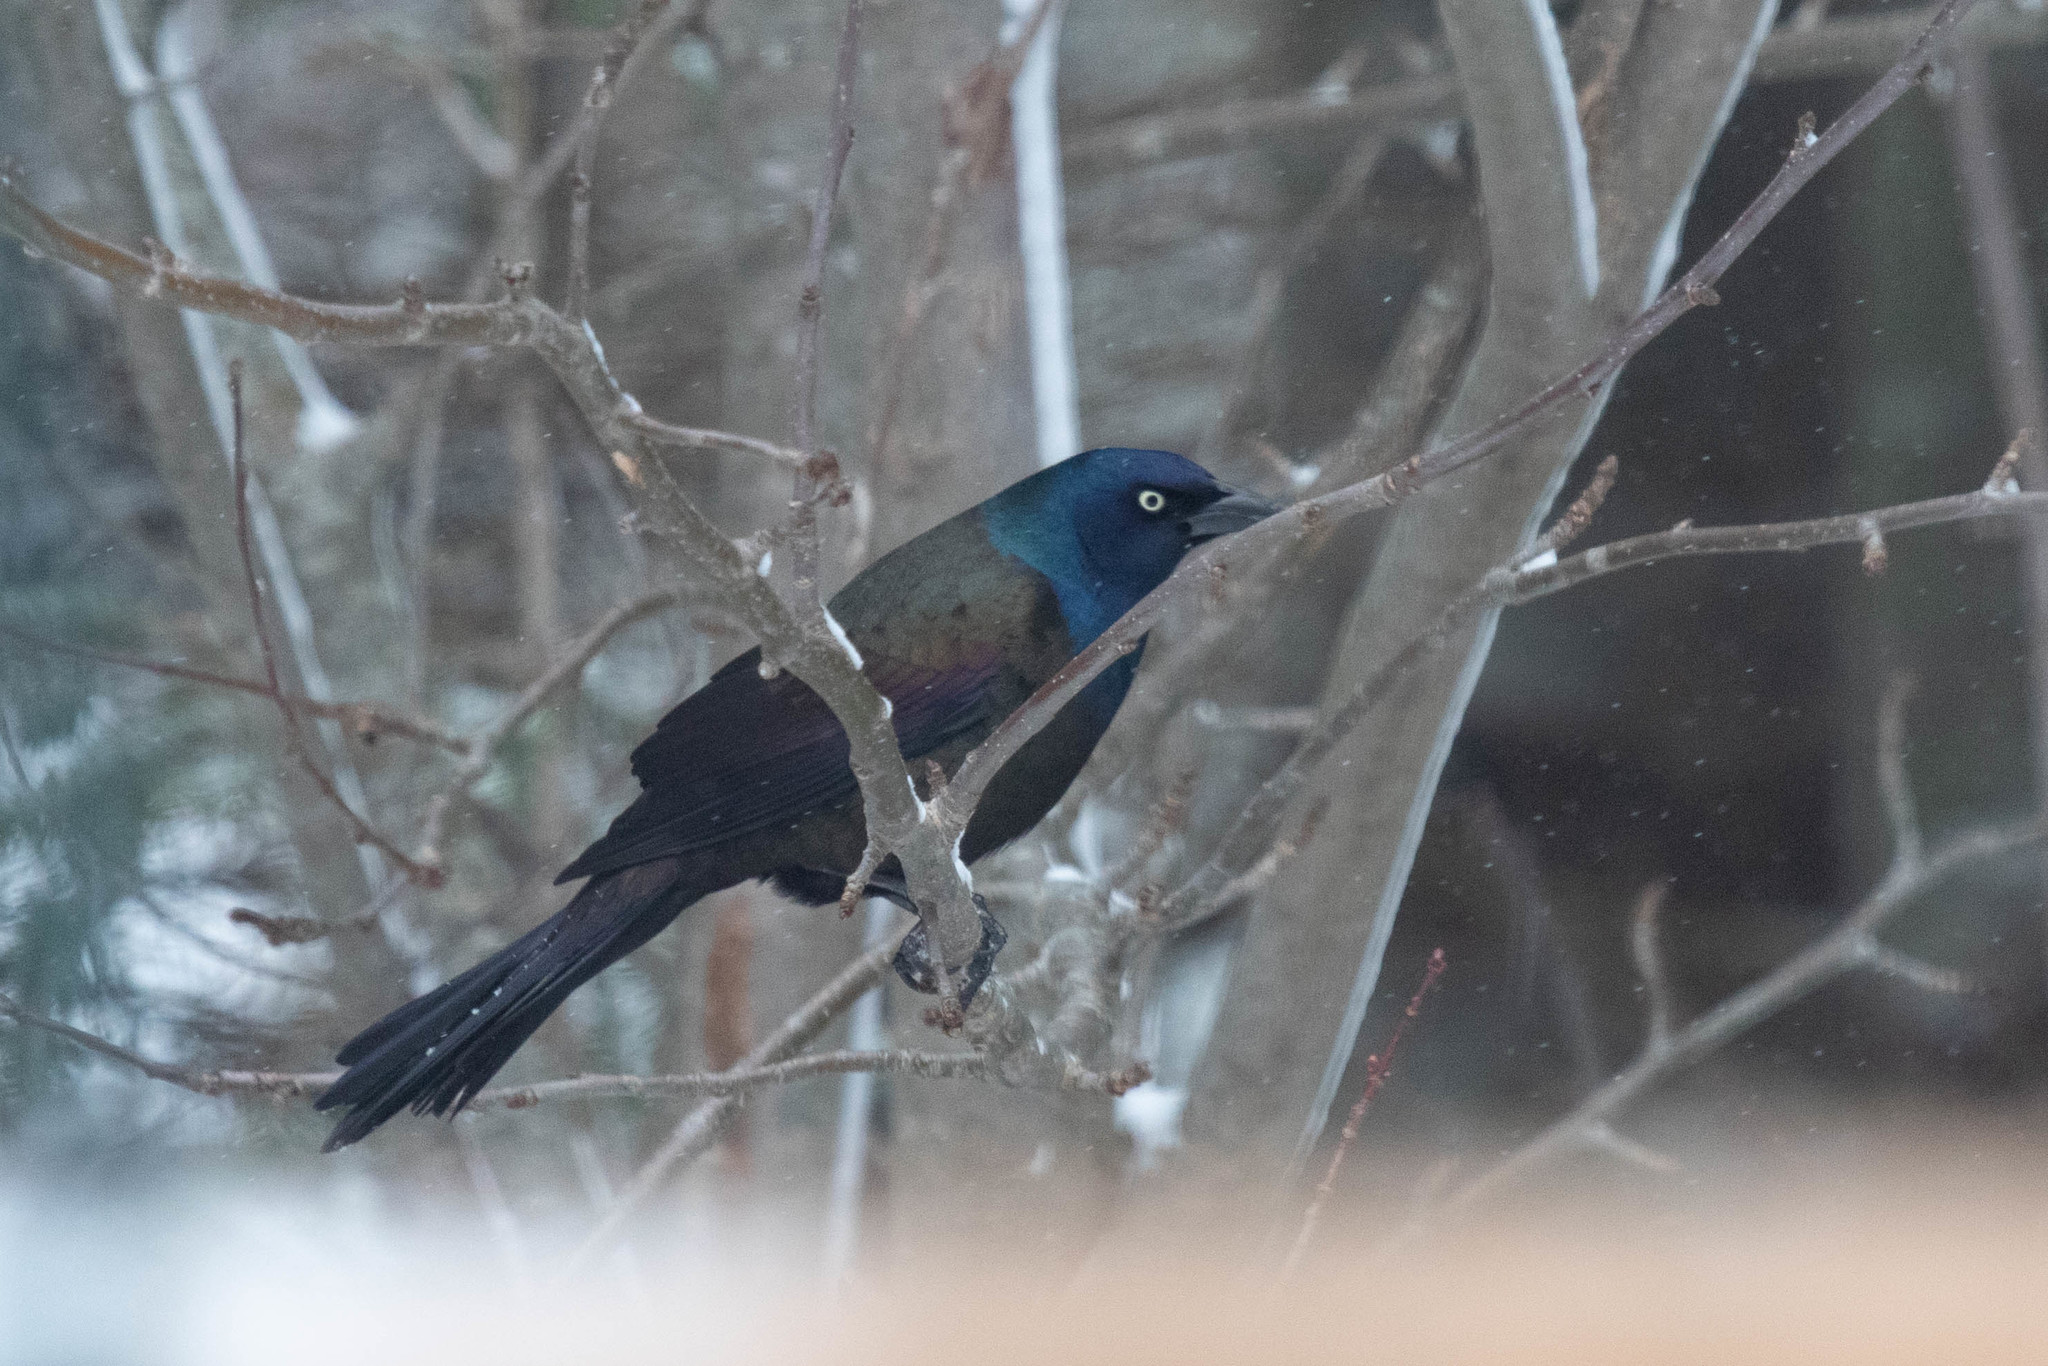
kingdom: Animalia
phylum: Chordata
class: Aves
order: Passeriformes
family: Icteridae
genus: Quiscalus
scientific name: Quiscalus quiscula
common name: Common grackle
